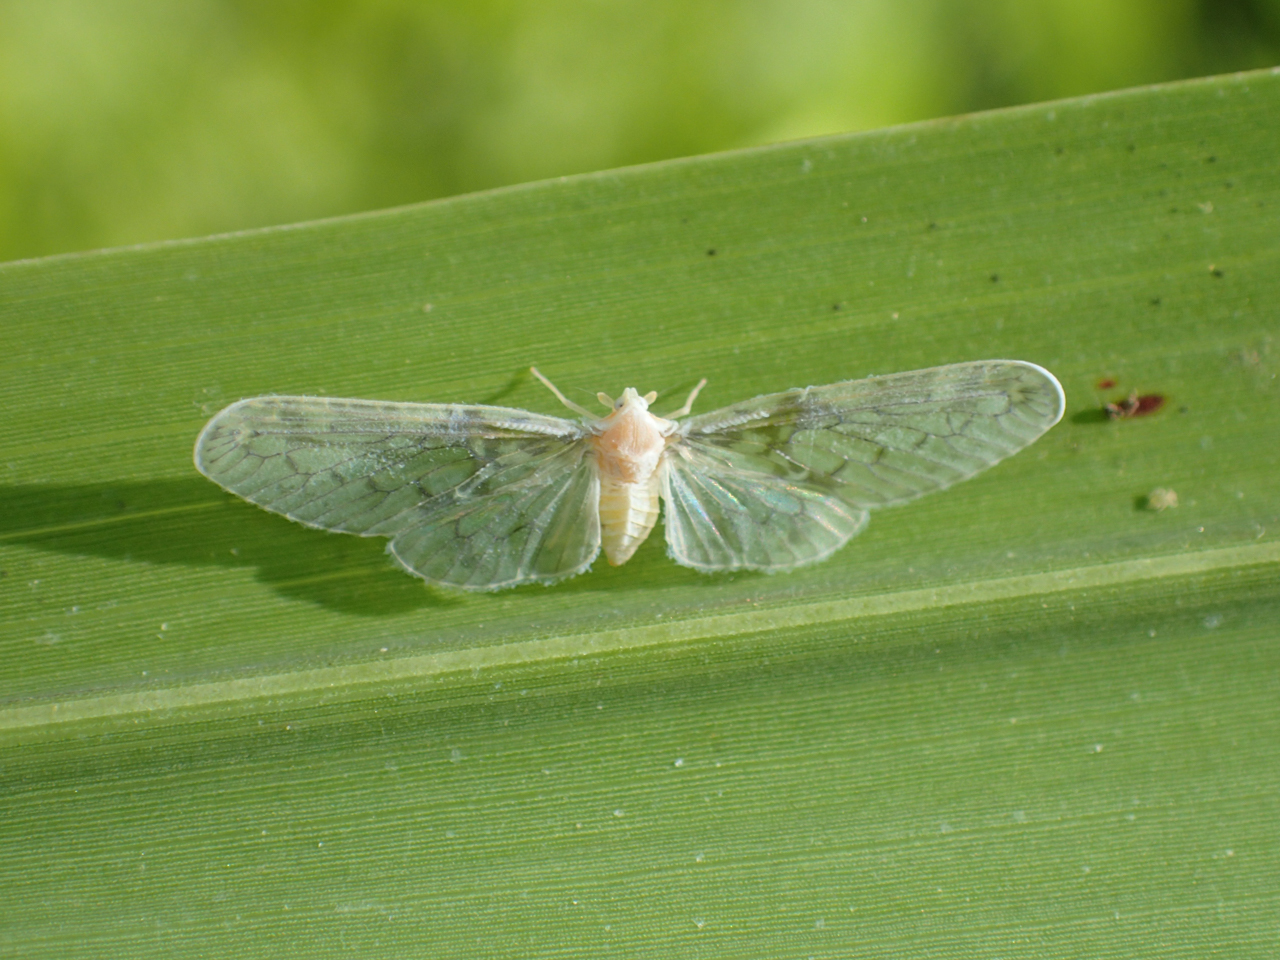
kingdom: Animalia
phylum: Arthropoda
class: Insecta
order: Hemiptera
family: Derbidae
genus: Paramysidia
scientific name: Paramysidia mississippiensis
